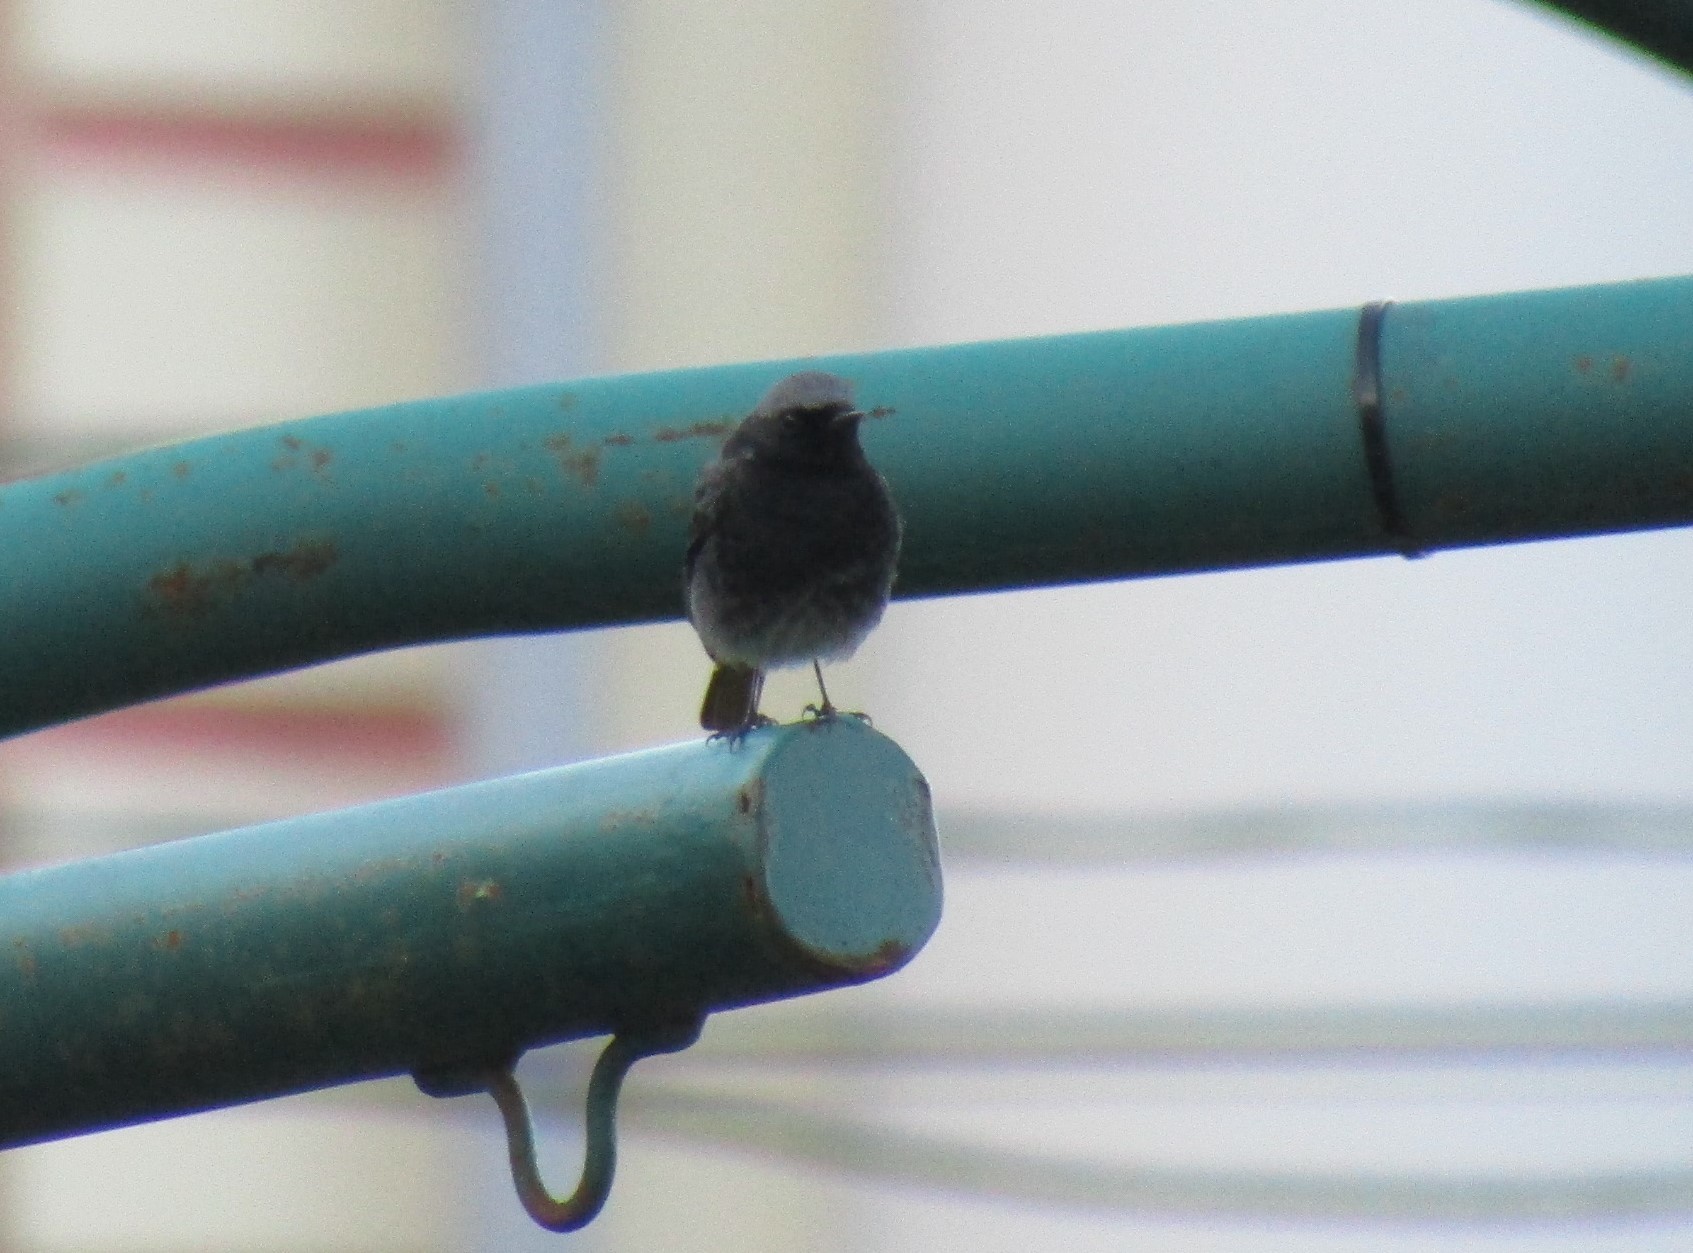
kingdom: Animalia
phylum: Chordata
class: Aves
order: Passeriformes
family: Muscicapidae
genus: Phoenicurus
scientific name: Phoenicurus ochruros
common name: Black redstart
